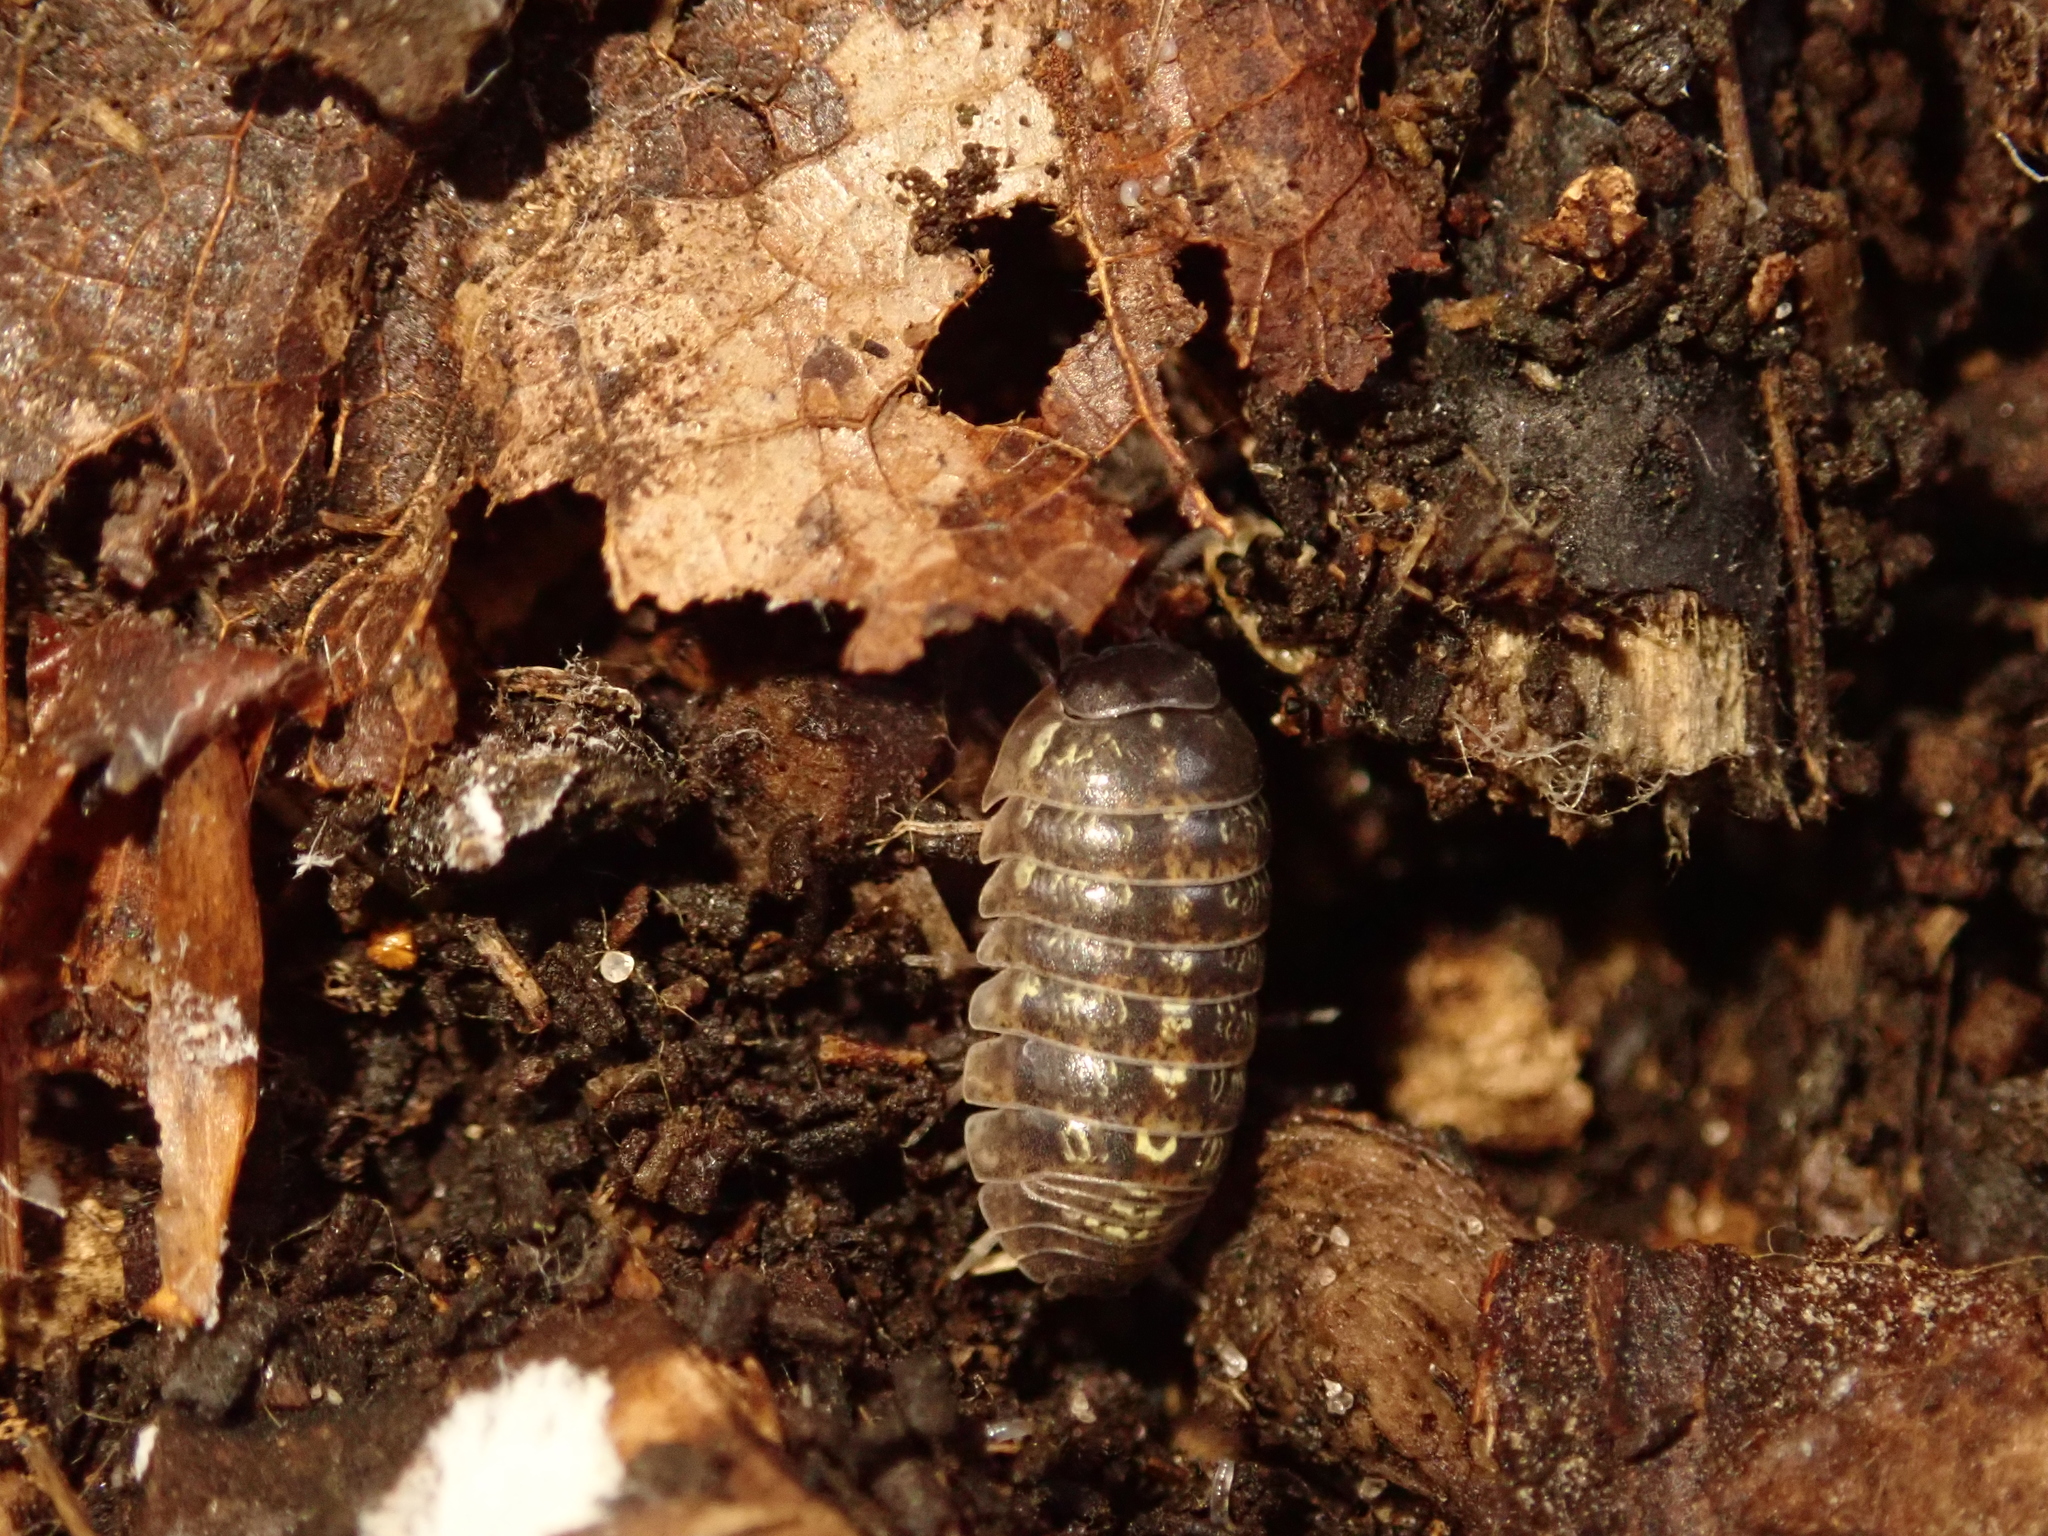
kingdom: Animalia
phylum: Arthropoda
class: Malacostraca
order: Isopoda
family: Armadillidiidae
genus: Armadillidium
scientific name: Armadillidium vulgare
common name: Common pill woodlouse
